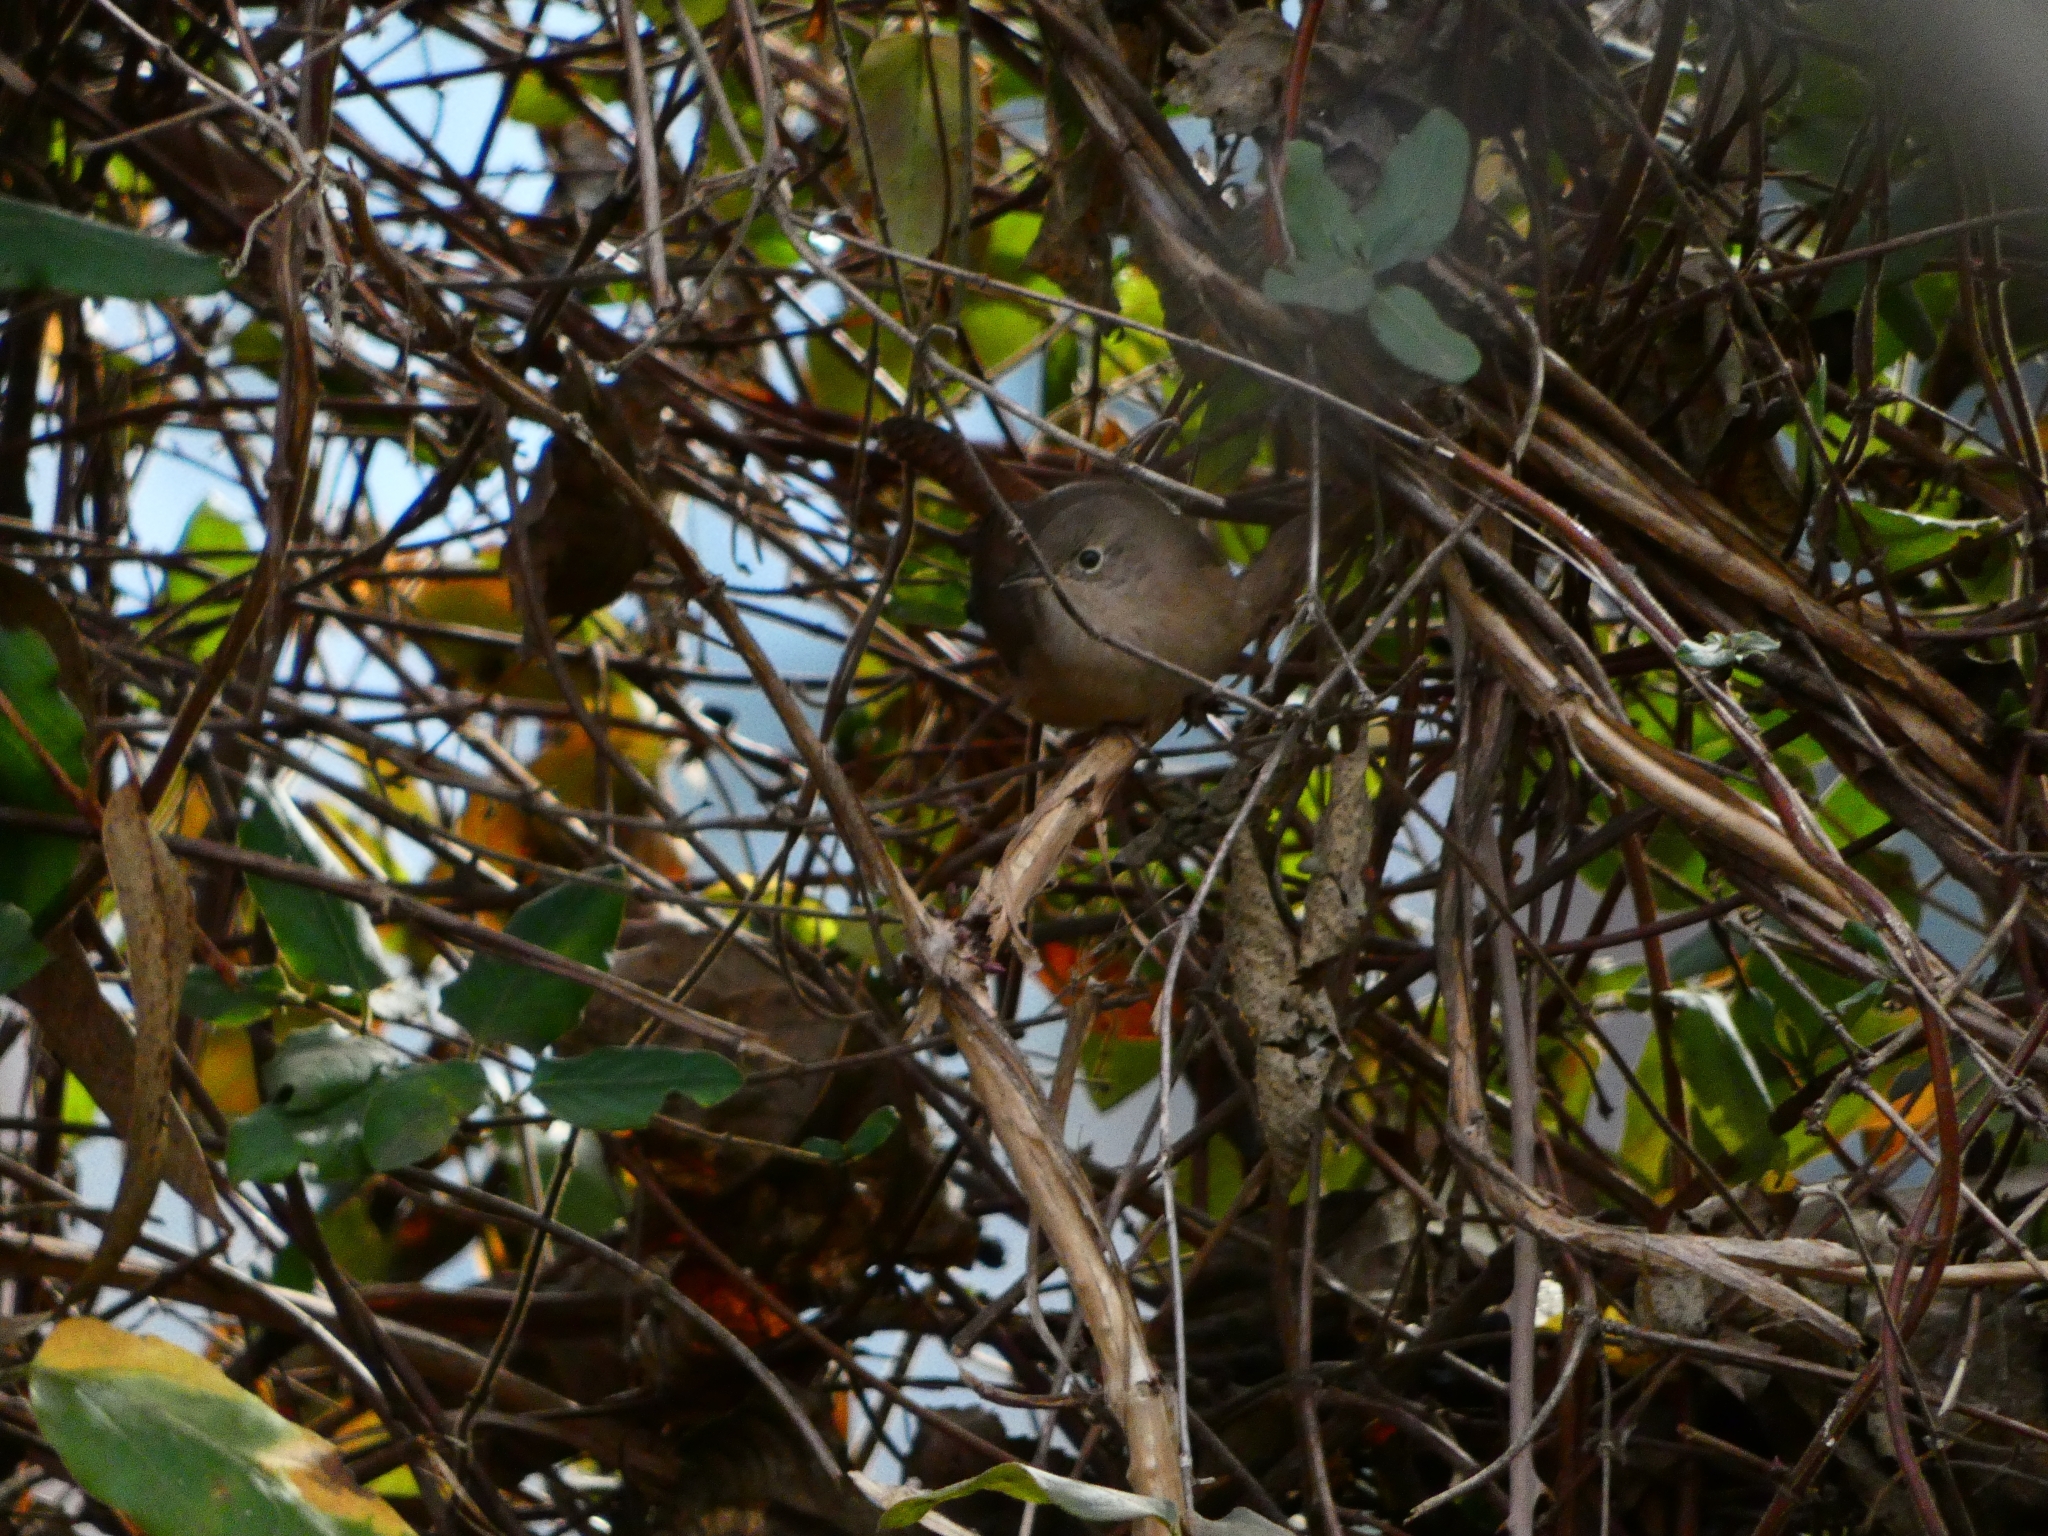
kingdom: Animalia
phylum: Chordata
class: Aves
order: Passeriformes
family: Troglodytidae
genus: Troglodytes
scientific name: Troglodytes aedon
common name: House wren
